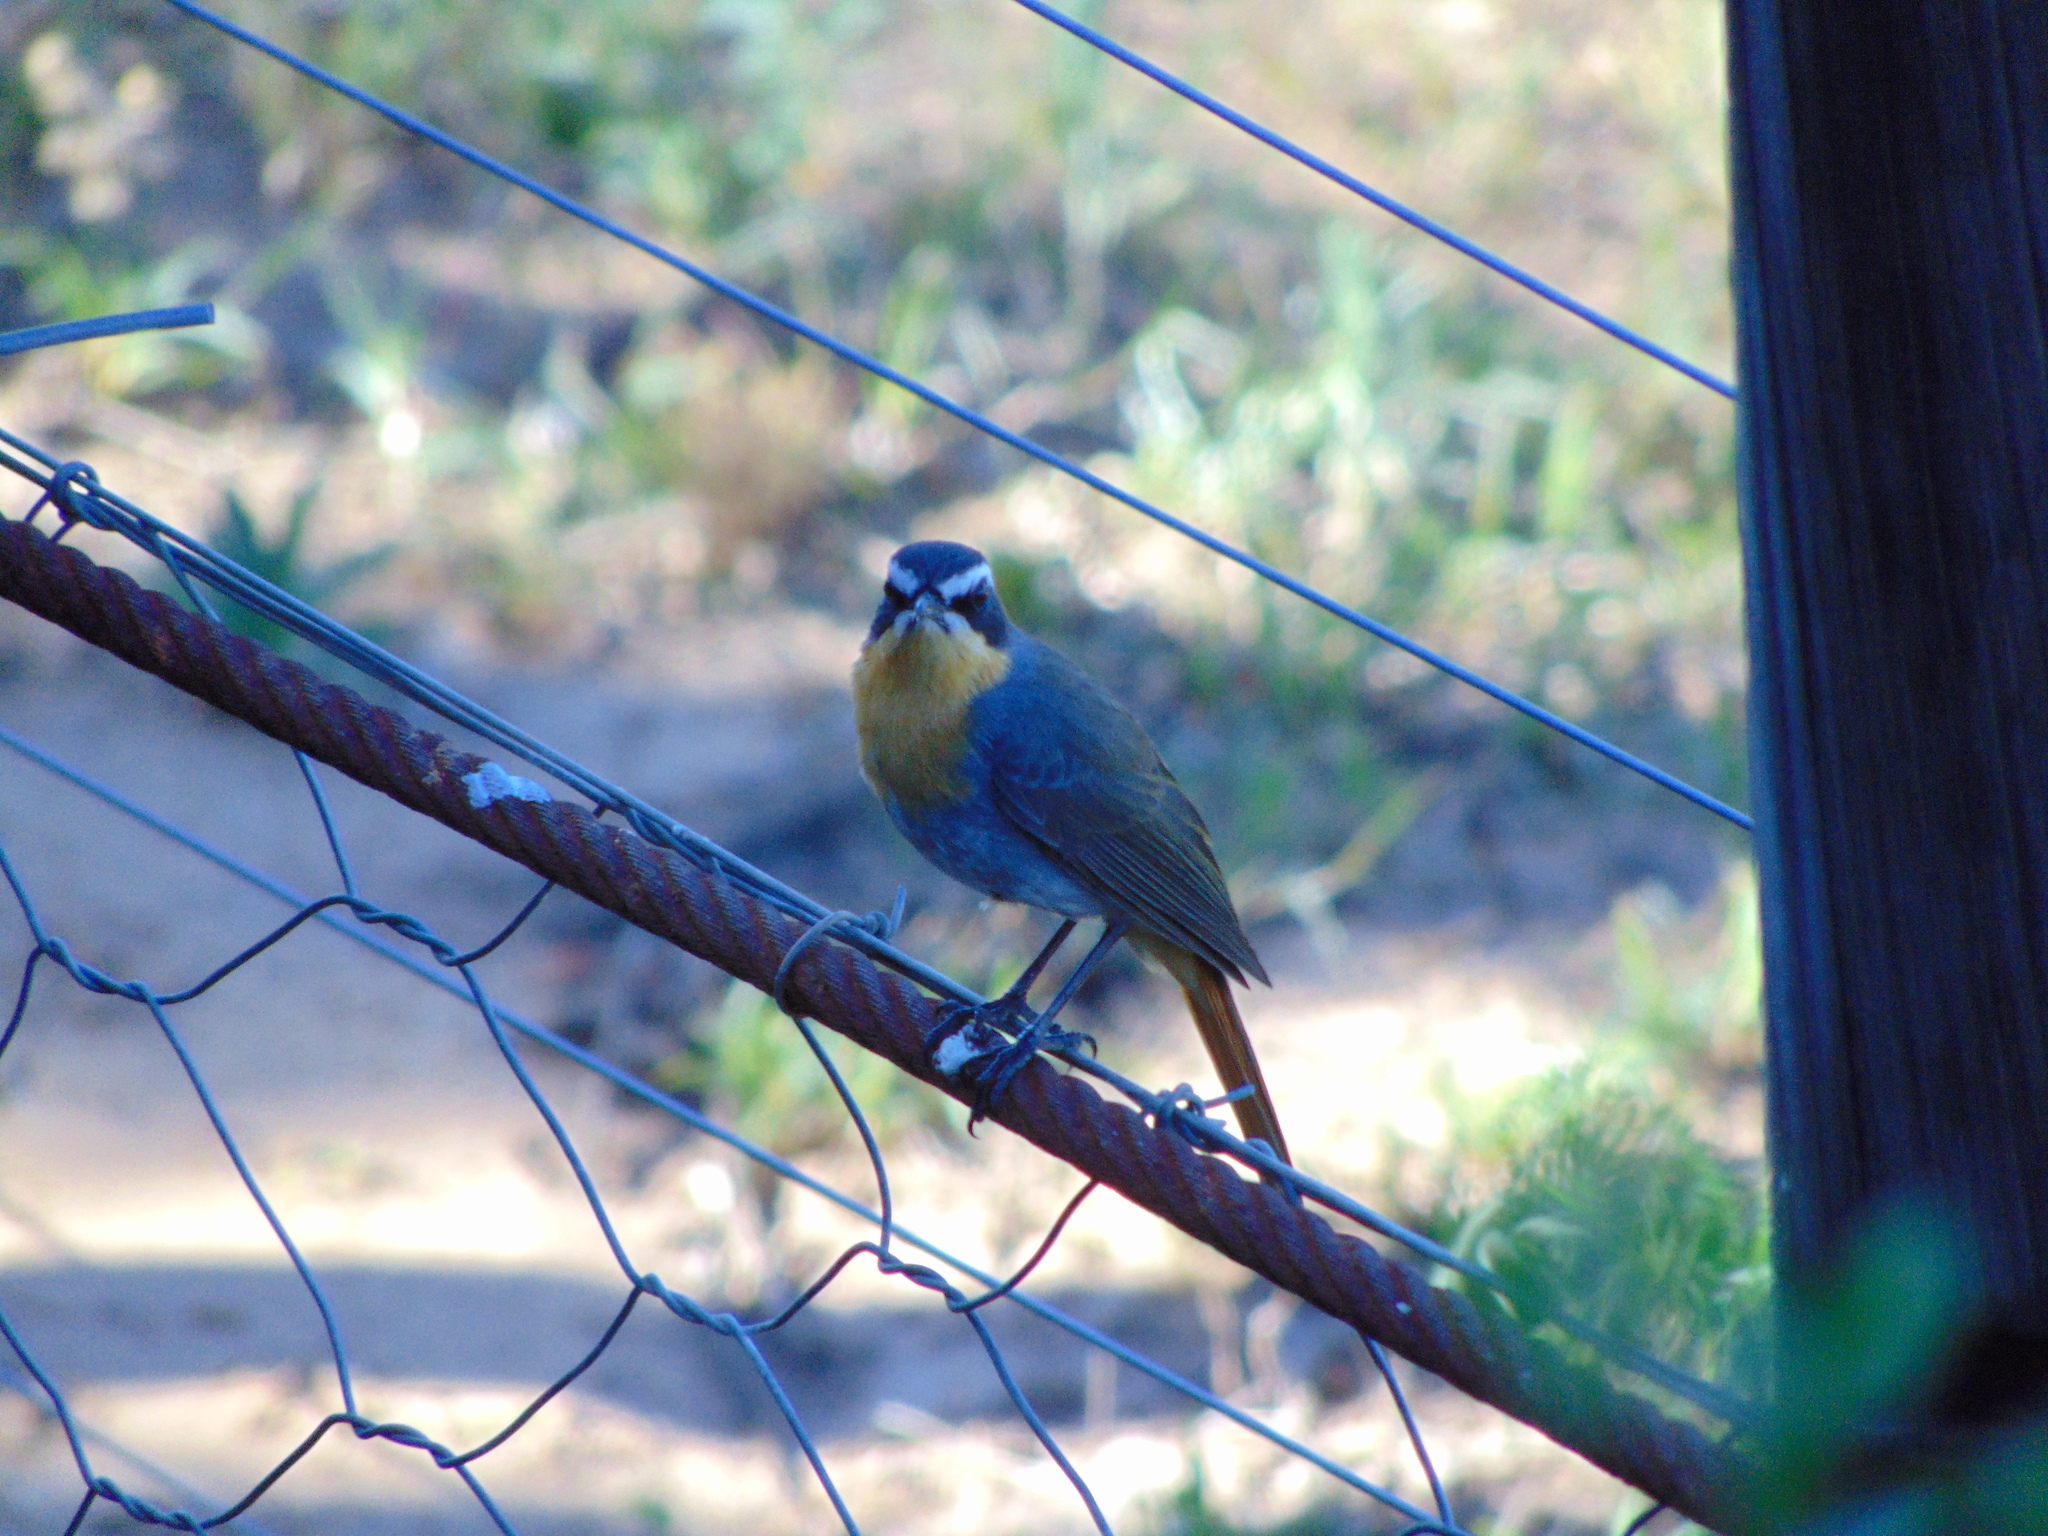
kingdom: Animalia
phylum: Chordata
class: Aves
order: Passeriformes
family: Muscicapidae
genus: Cossypha
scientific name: Cossypha caffra
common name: Cape robin-chat
